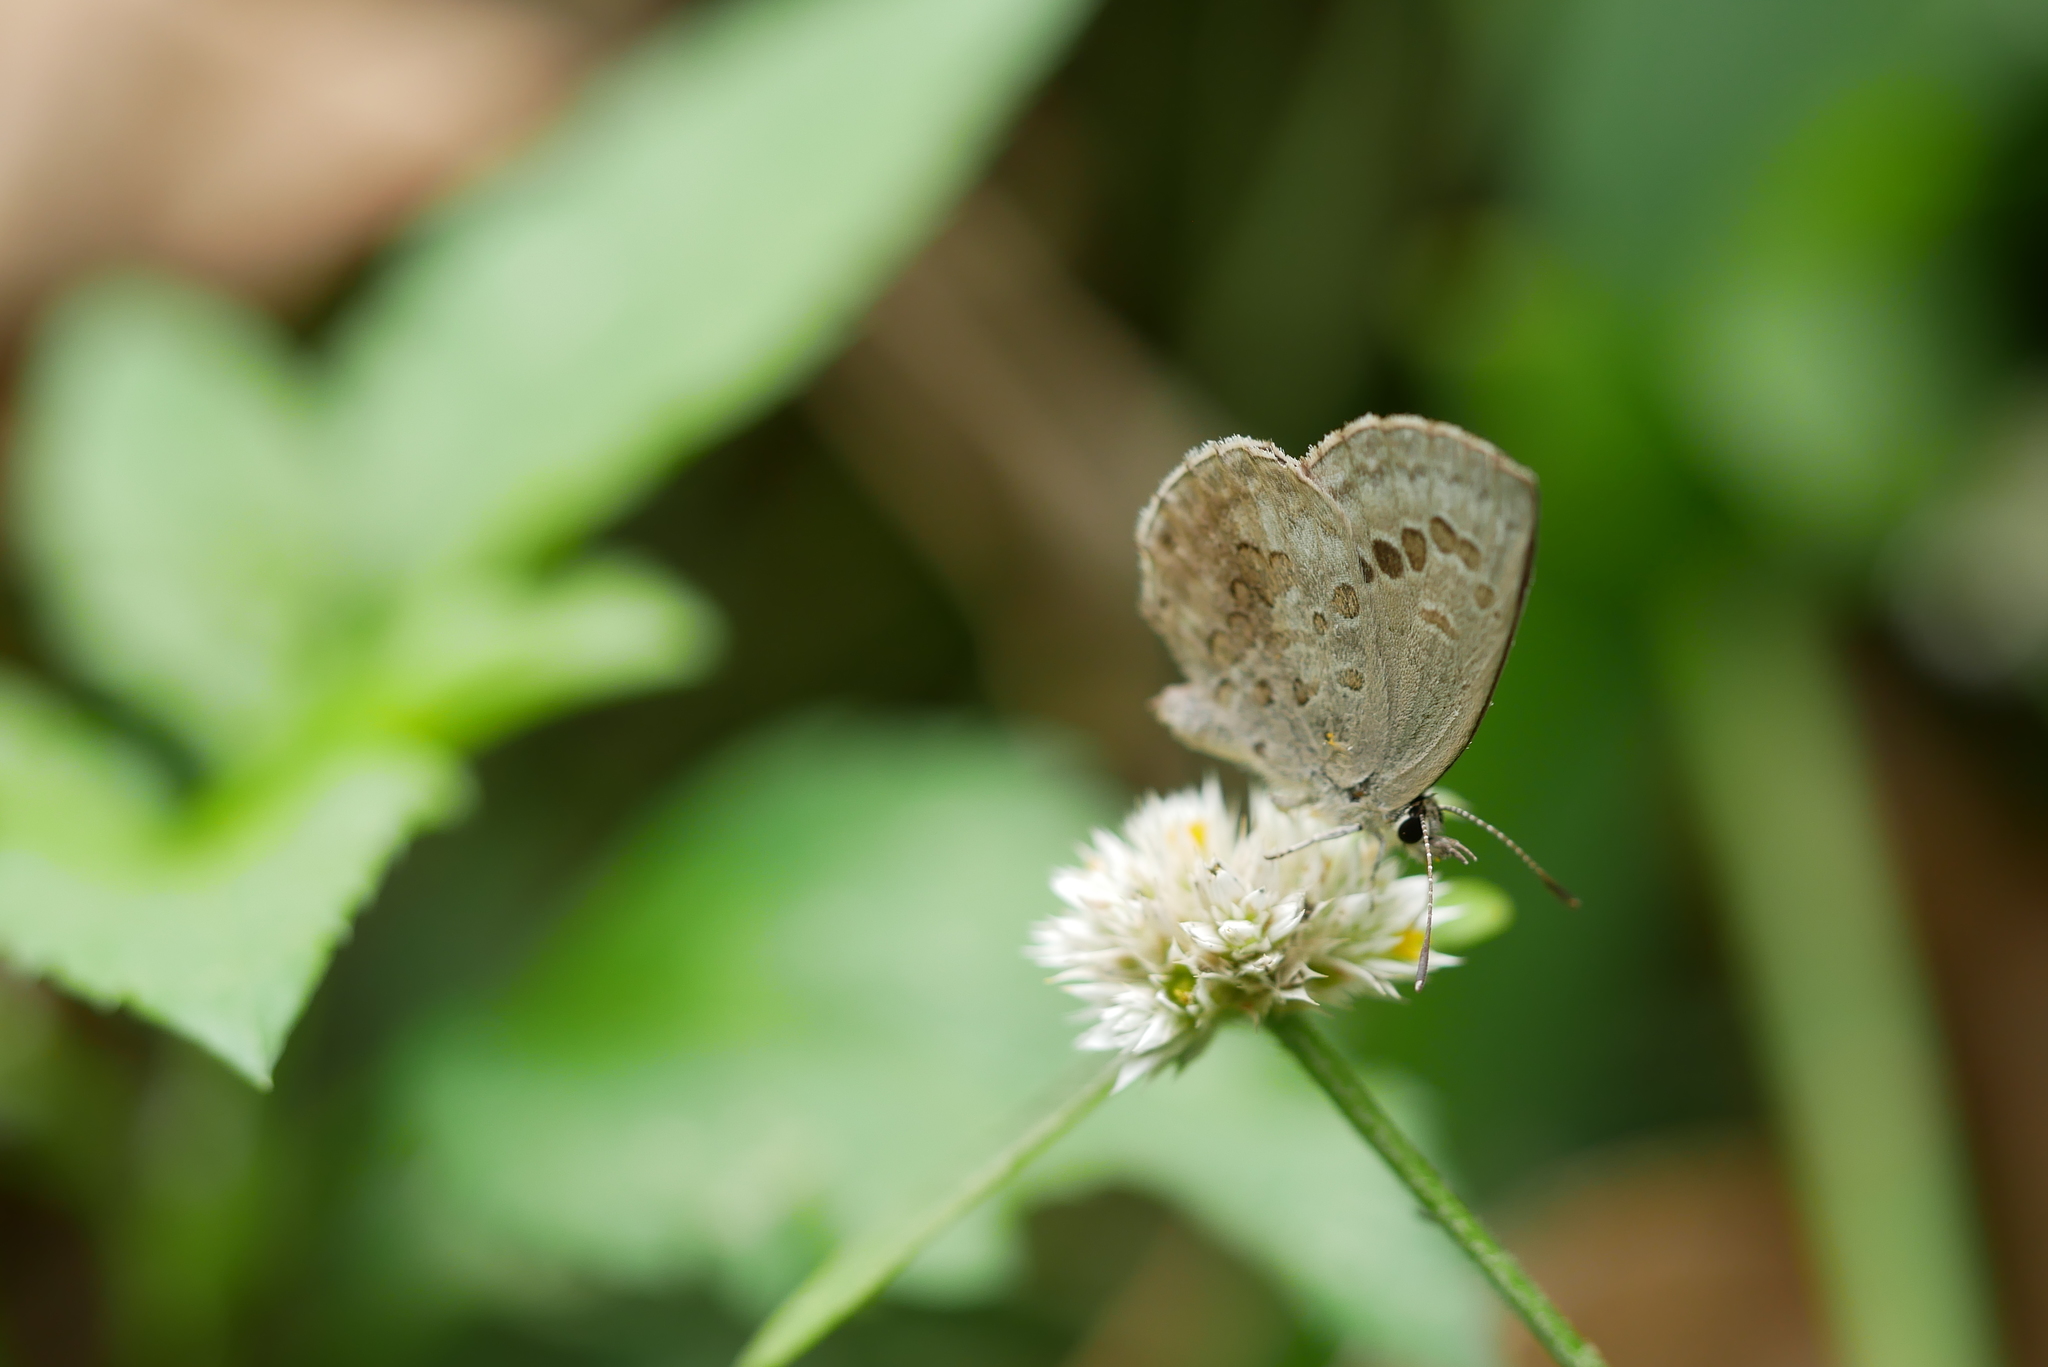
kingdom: Animalia
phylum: Arthropoda
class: Insecta
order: Lepidoptera
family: Lycaenidae
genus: Chilades
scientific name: Chilades laius
